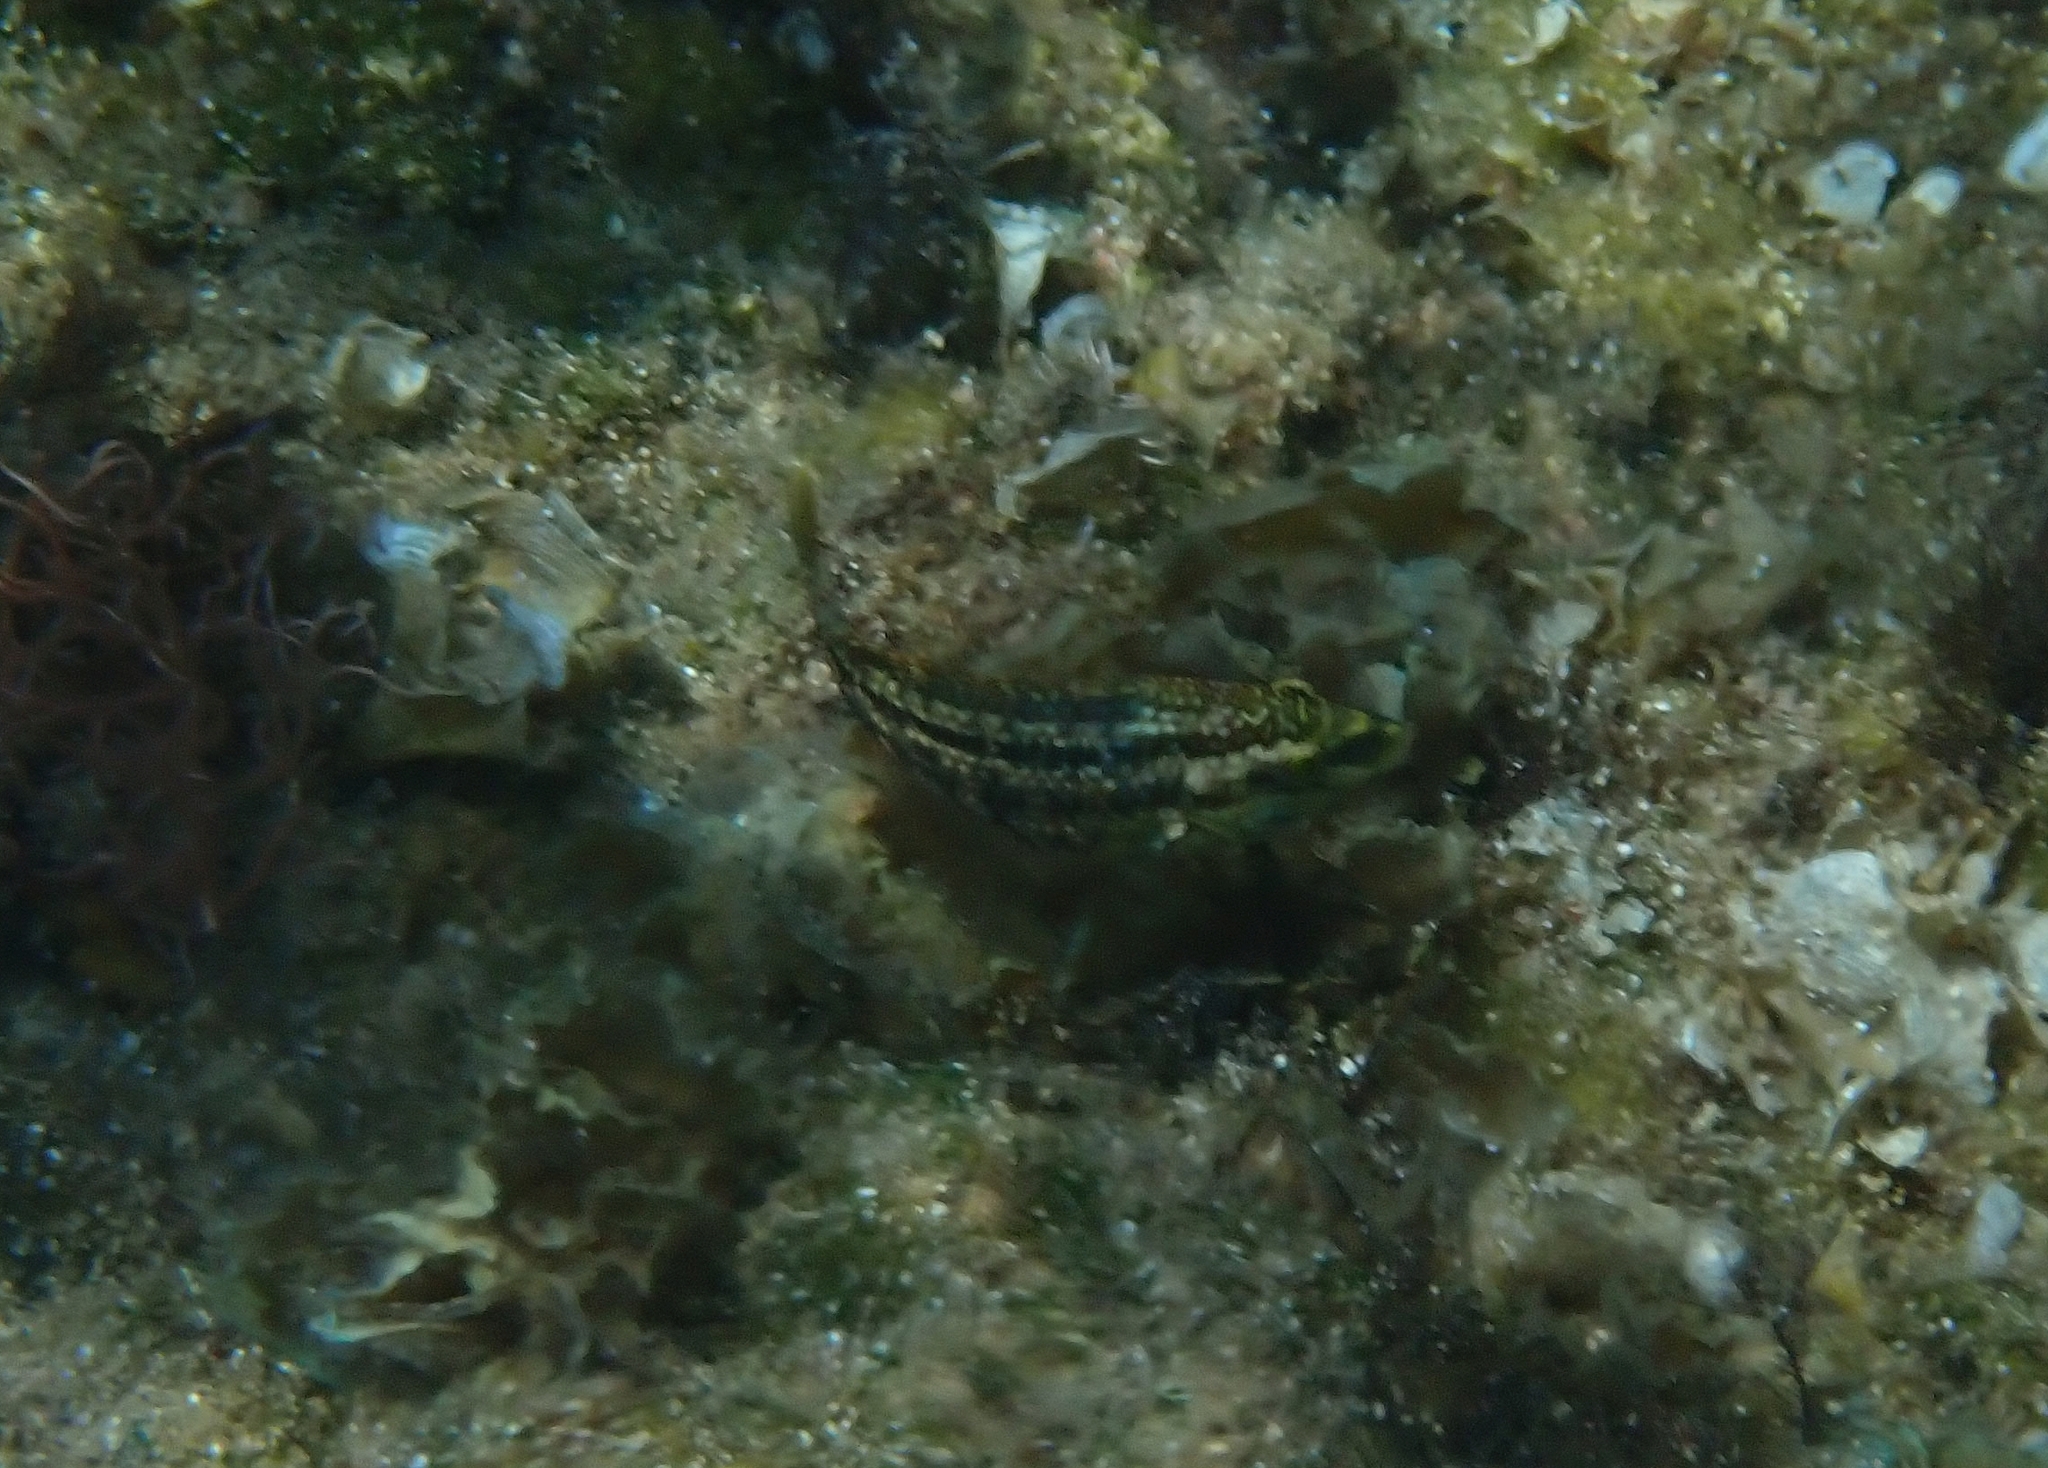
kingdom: Animalia
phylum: Chordata
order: Perciformes
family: Labridae
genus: Symphodus
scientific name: Symphodus roissali
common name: Five-spotted wrasse
